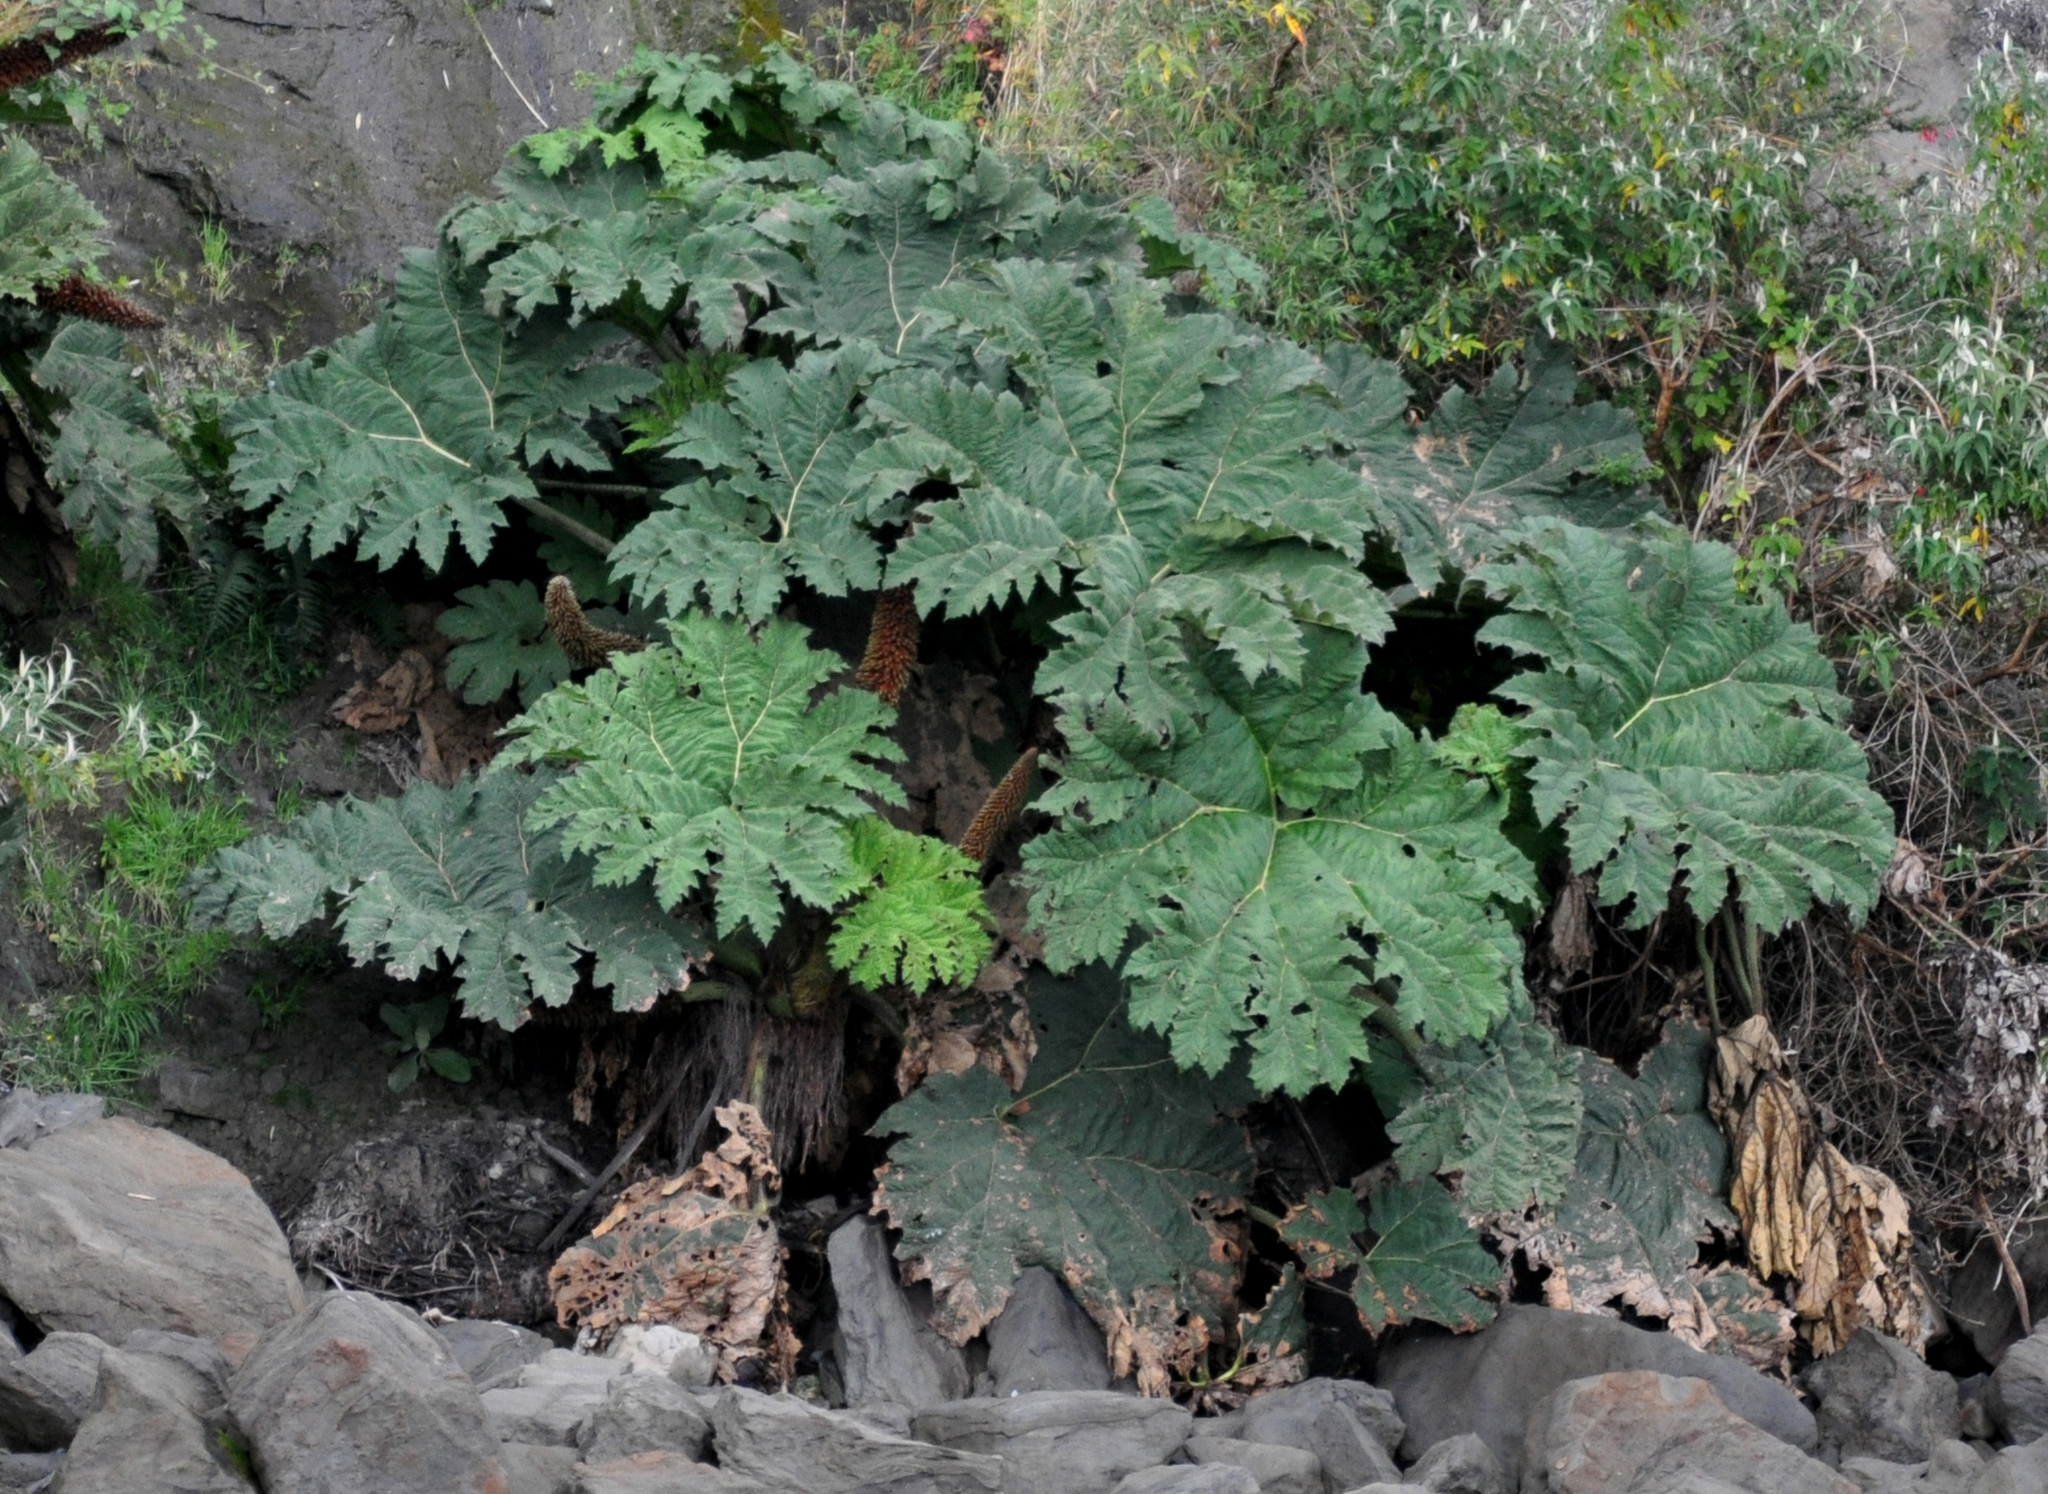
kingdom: Plantae
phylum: Tracheophyta
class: Magnoliopsida
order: Gunnerales
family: Gunneraceae
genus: Gunnera
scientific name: Gunnera tinctoria
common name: Giant-rhubarb
